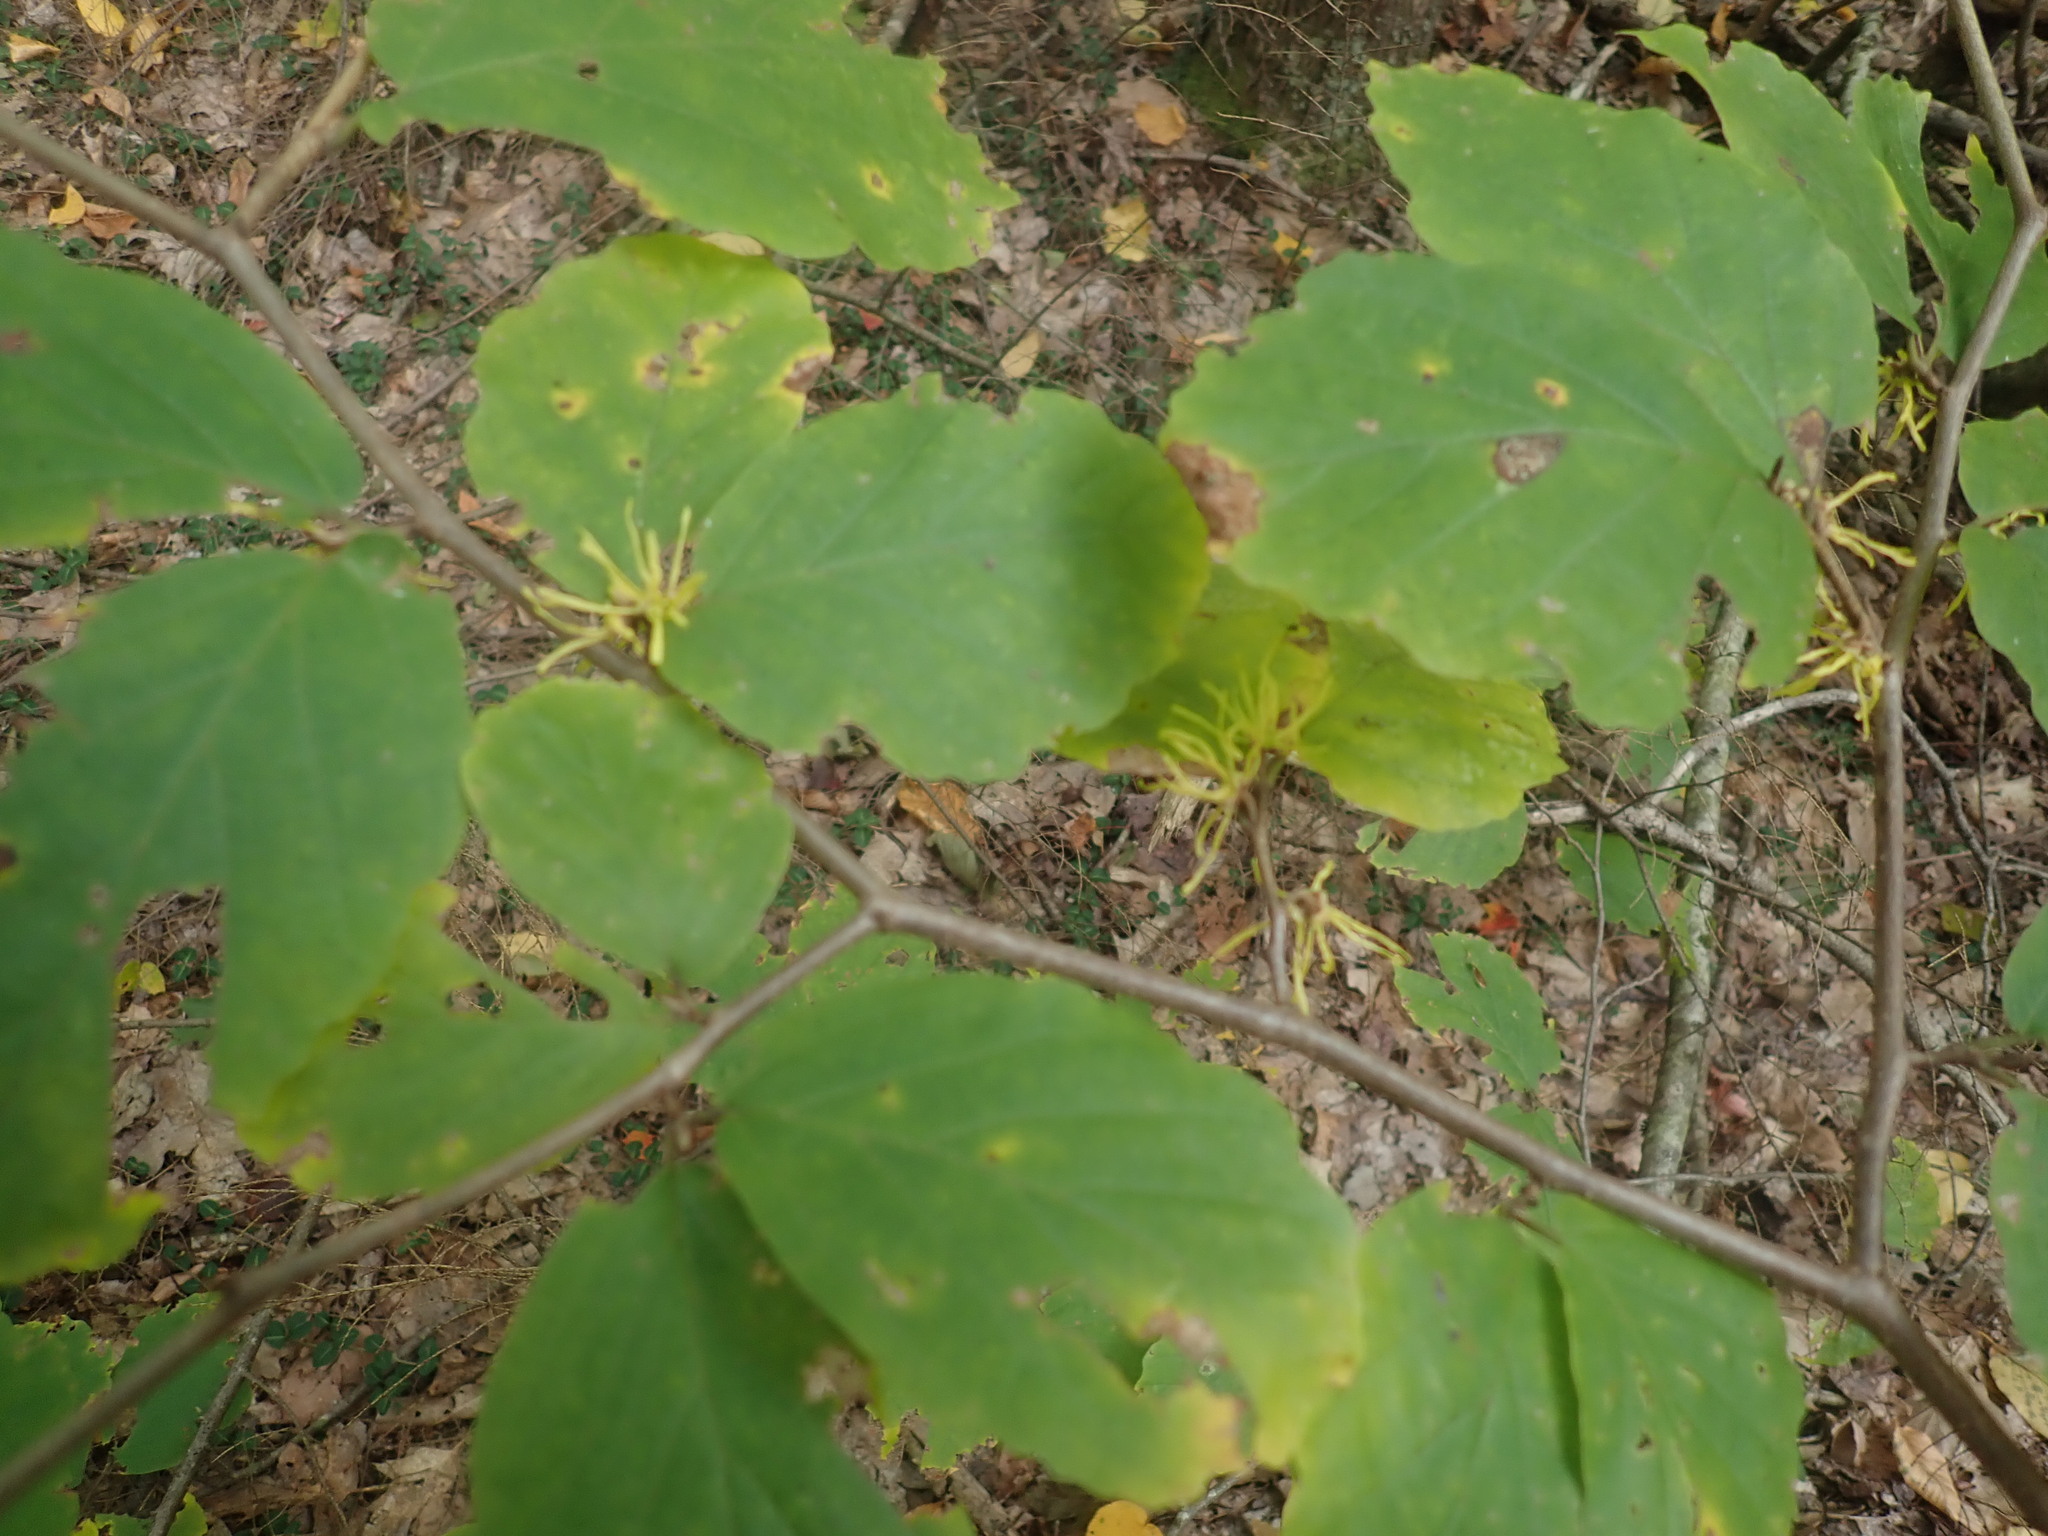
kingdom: Plantae
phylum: Tracheophyta
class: Magnoliopsida
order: Saxifragales
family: Hamamelidaceae
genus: Hamamelis
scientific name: Hamamelis virginiana
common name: Witch-hazel
